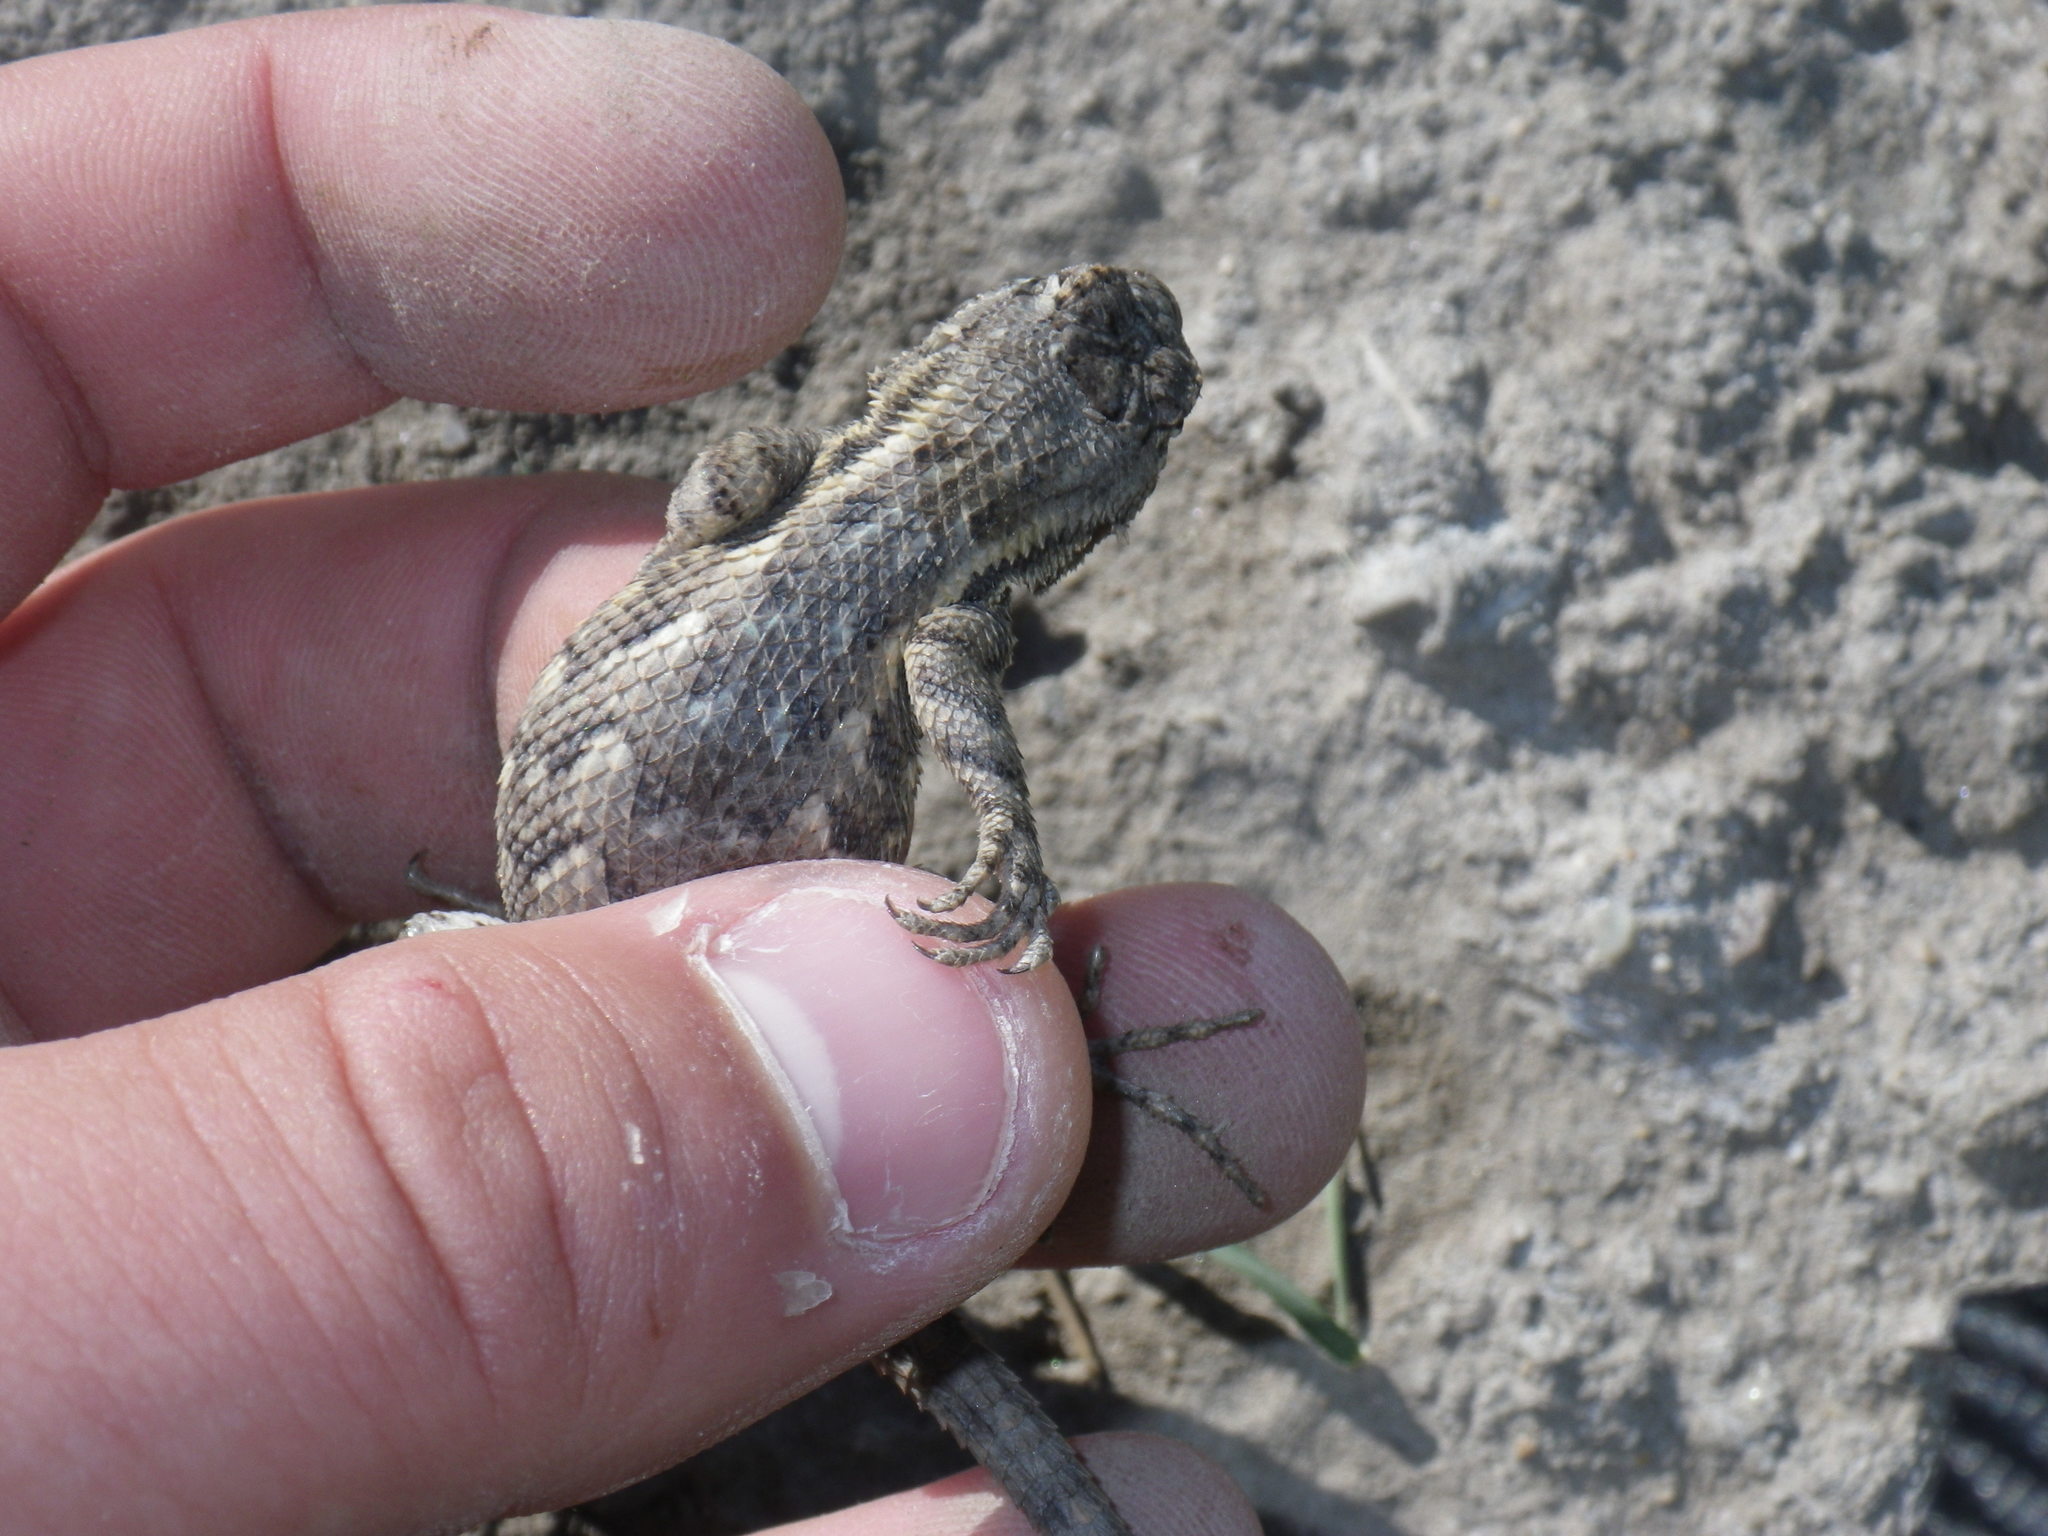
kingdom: Animalia
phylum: Chordata
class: Squamata
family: Phrynosomatidae
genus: Sceloporus
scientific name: Sceloporus occidentalis
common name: Western fence lizard
